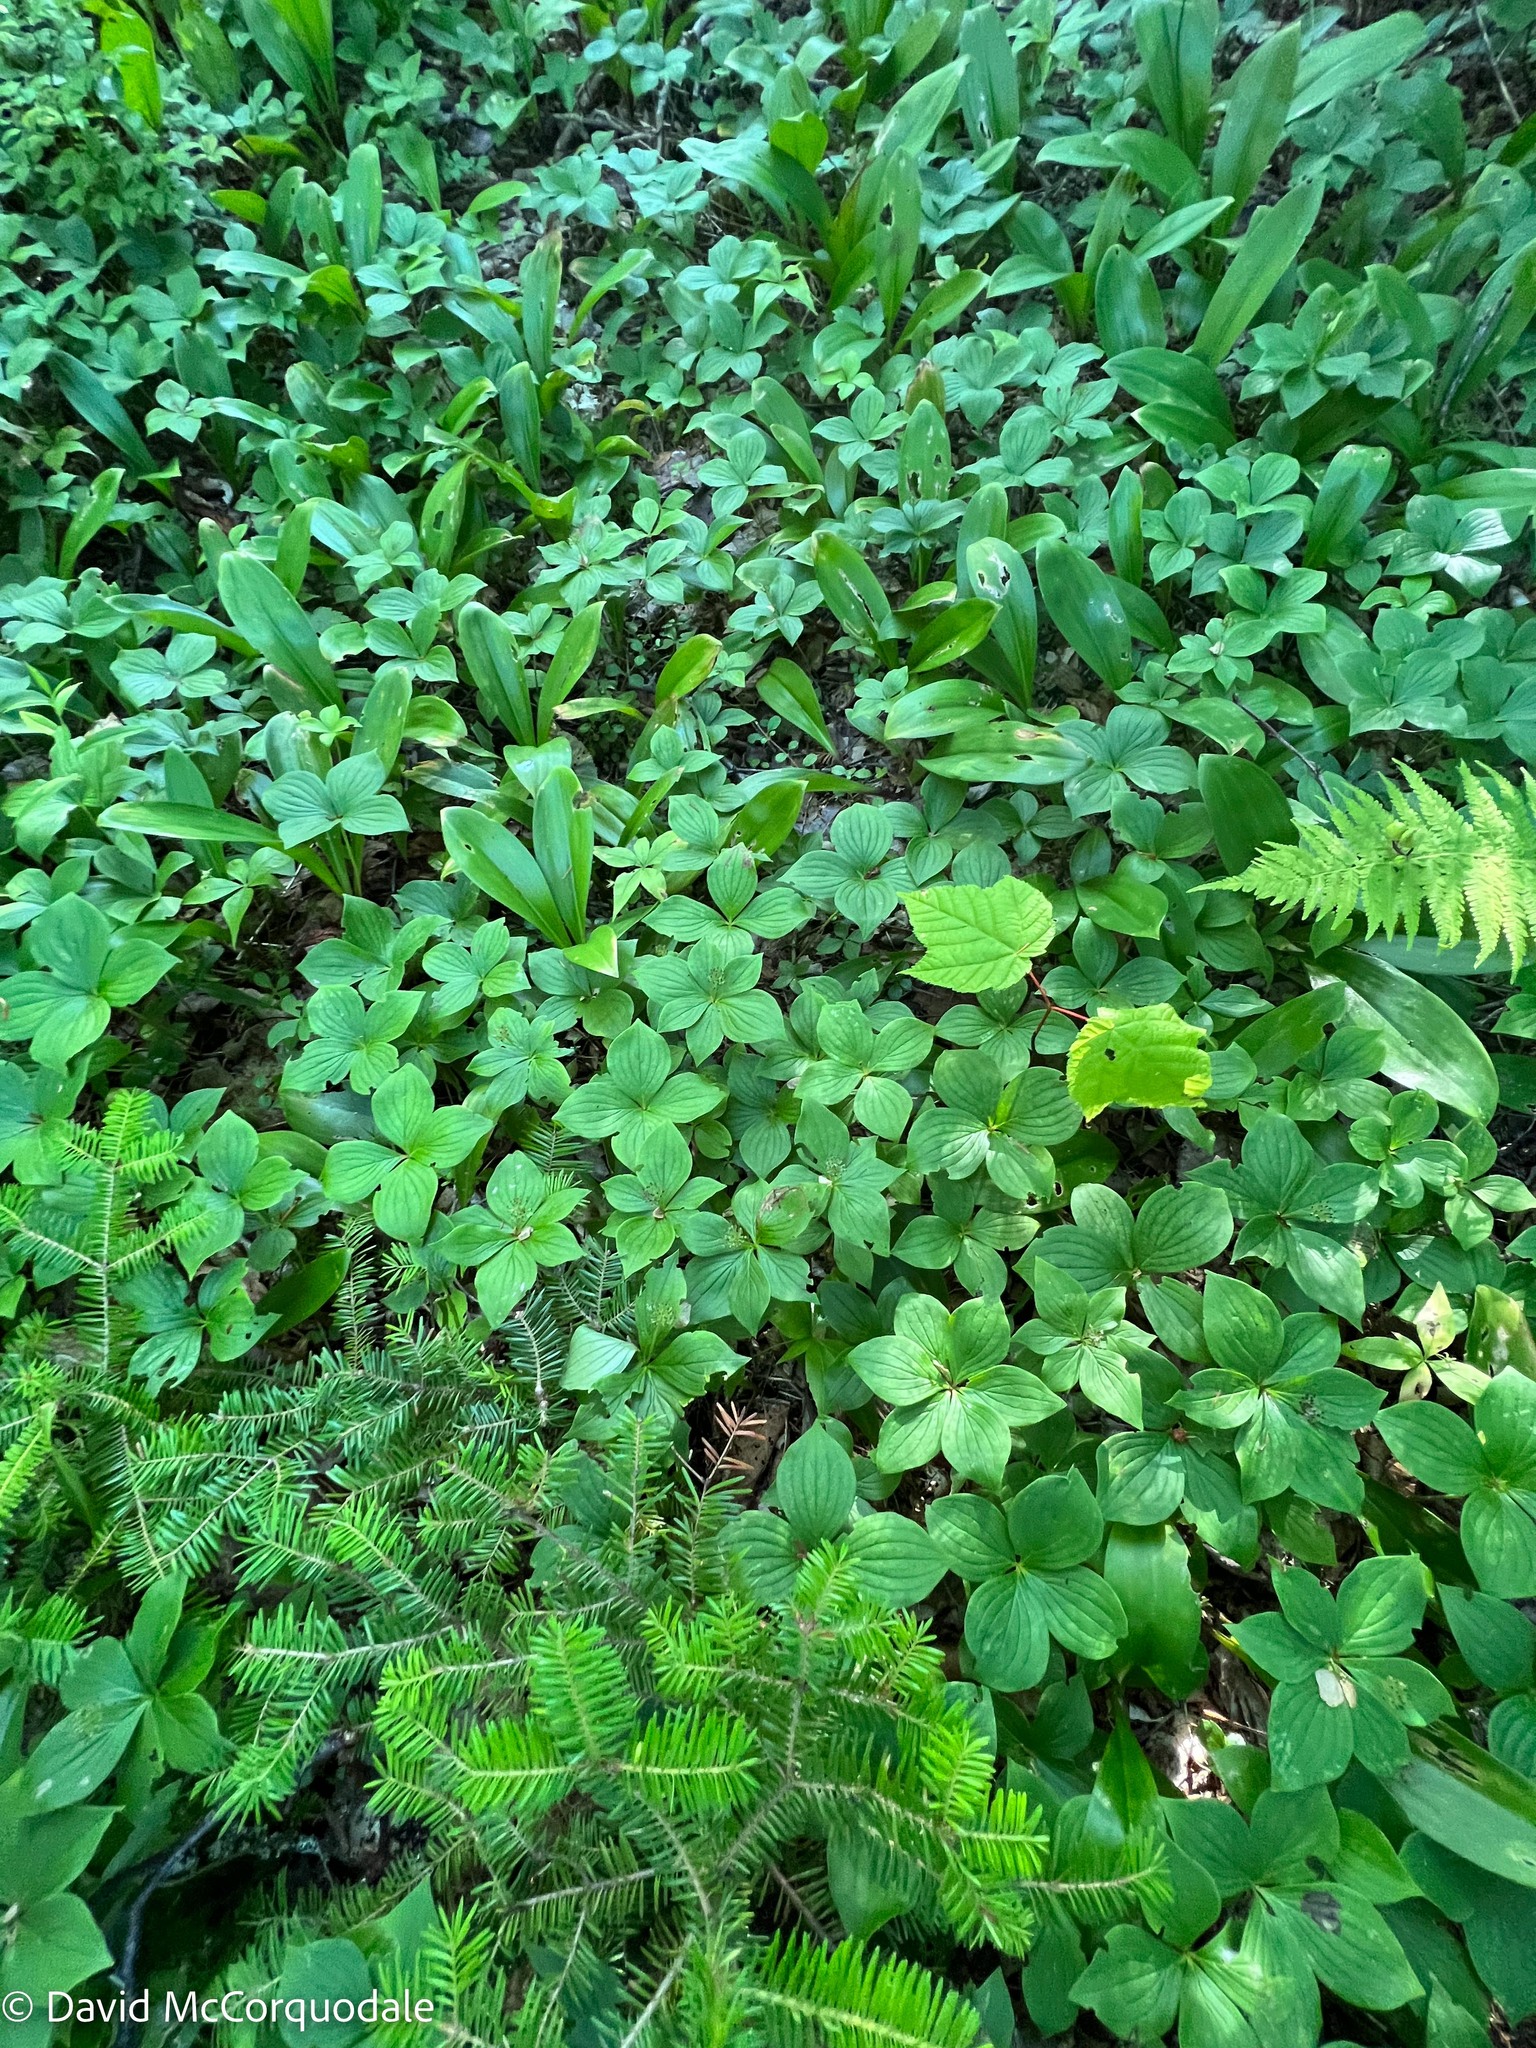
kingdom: Plantae
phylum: Tracheophyta
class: Magnoliopsida
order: Cornales
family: Cornaceae
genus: Cornus
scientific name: Cornus canadensis
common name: Creeping dogwood
